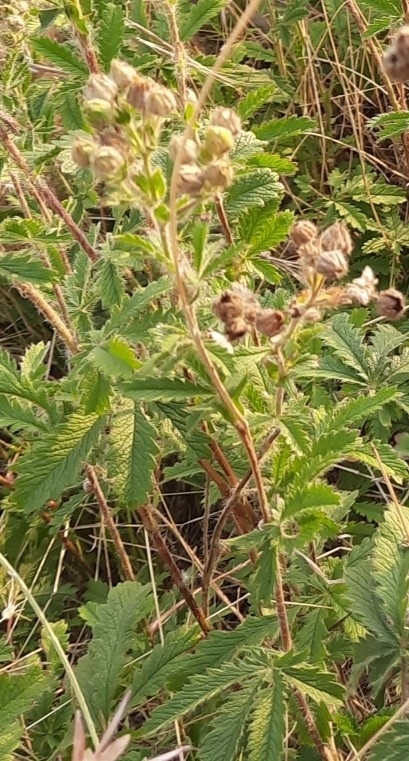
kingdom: Plantae
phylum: Tracheophyta
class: Magnoliopsida
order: Rosales
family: Rosaceae
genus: Potentilla
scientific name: Potentilla recta
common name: Sulphur cinquefoil
